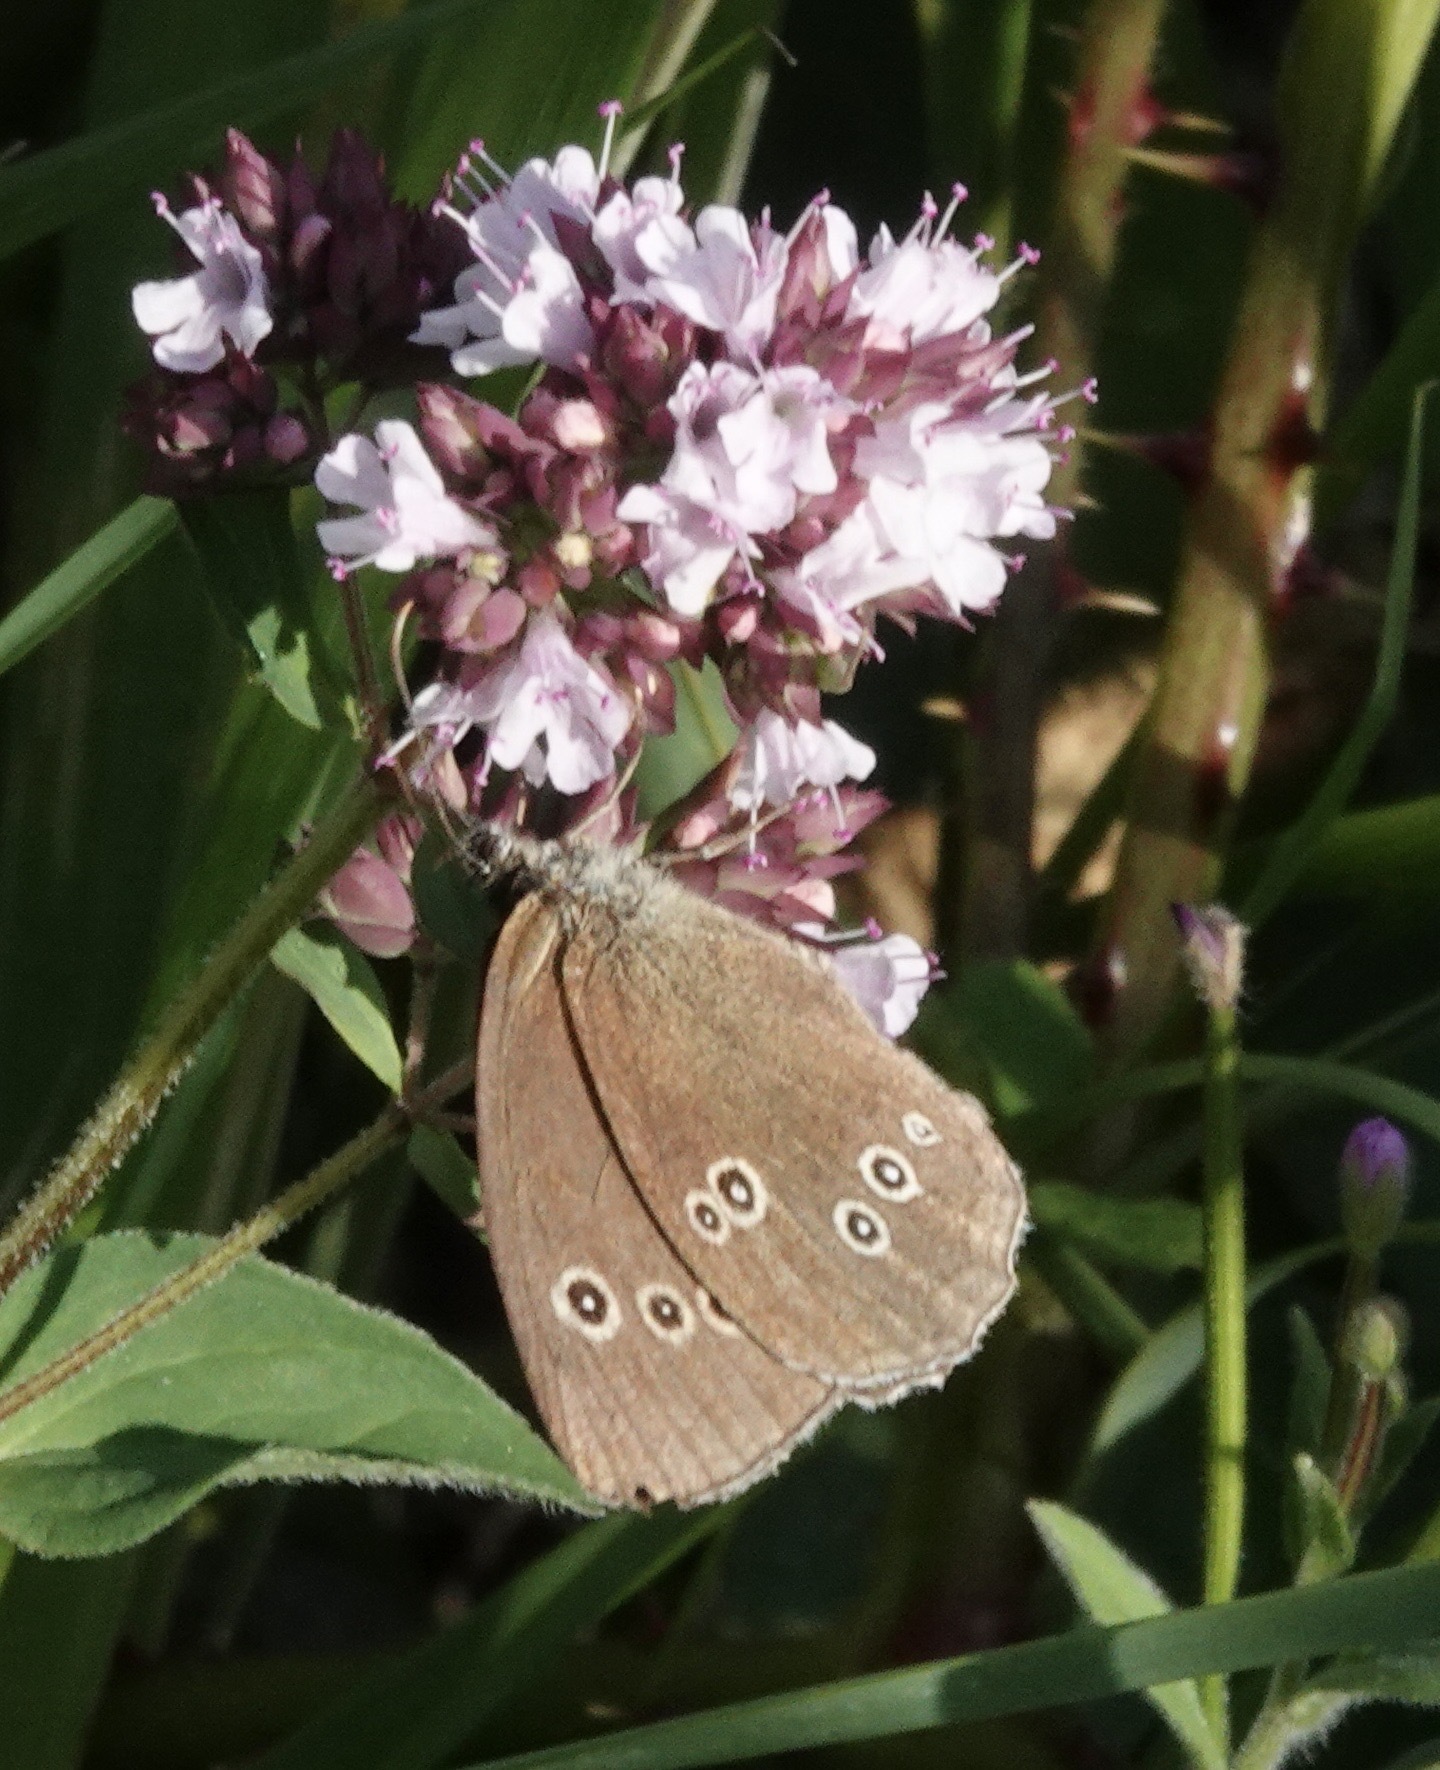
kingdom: Animalia
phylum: Arthropoda
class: Insecta
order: Lepidoptera
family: Nymphalidae
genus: Aphantopus
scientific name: Aphantopus hyperantus
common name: Ringlet
